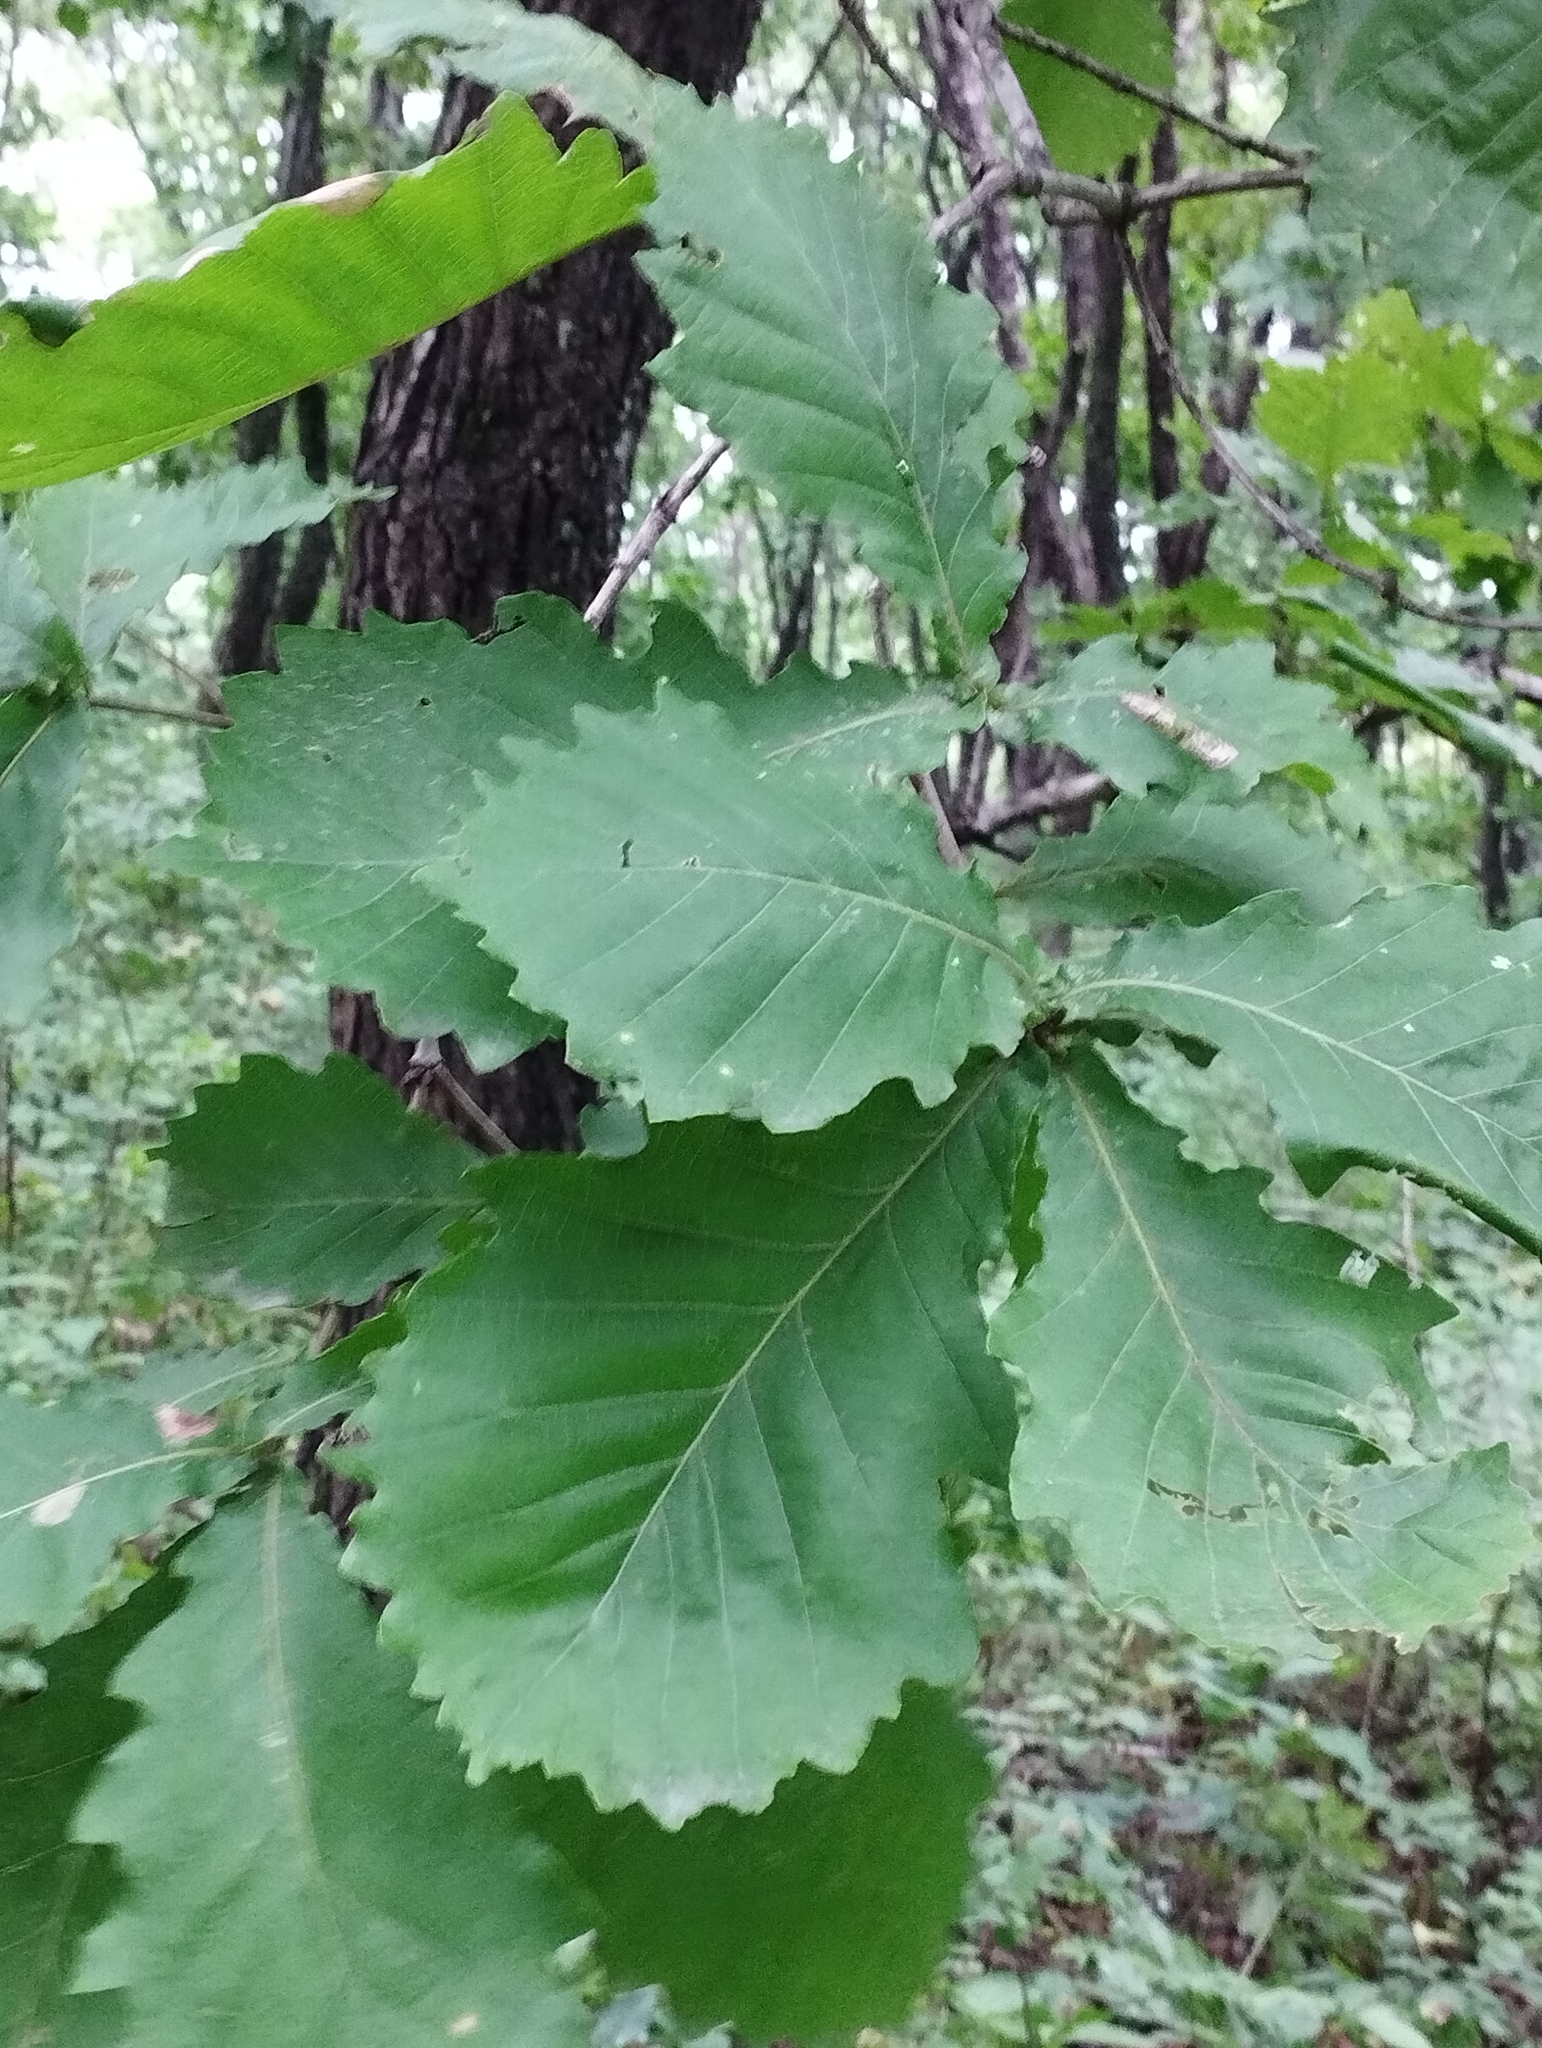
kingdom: Plantae
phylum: Tracheophyta
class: Magnoliopsida
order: Fagales
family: Fagaceae
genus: Quercus
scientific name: Quercus mongolica
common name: Mongolian oak
